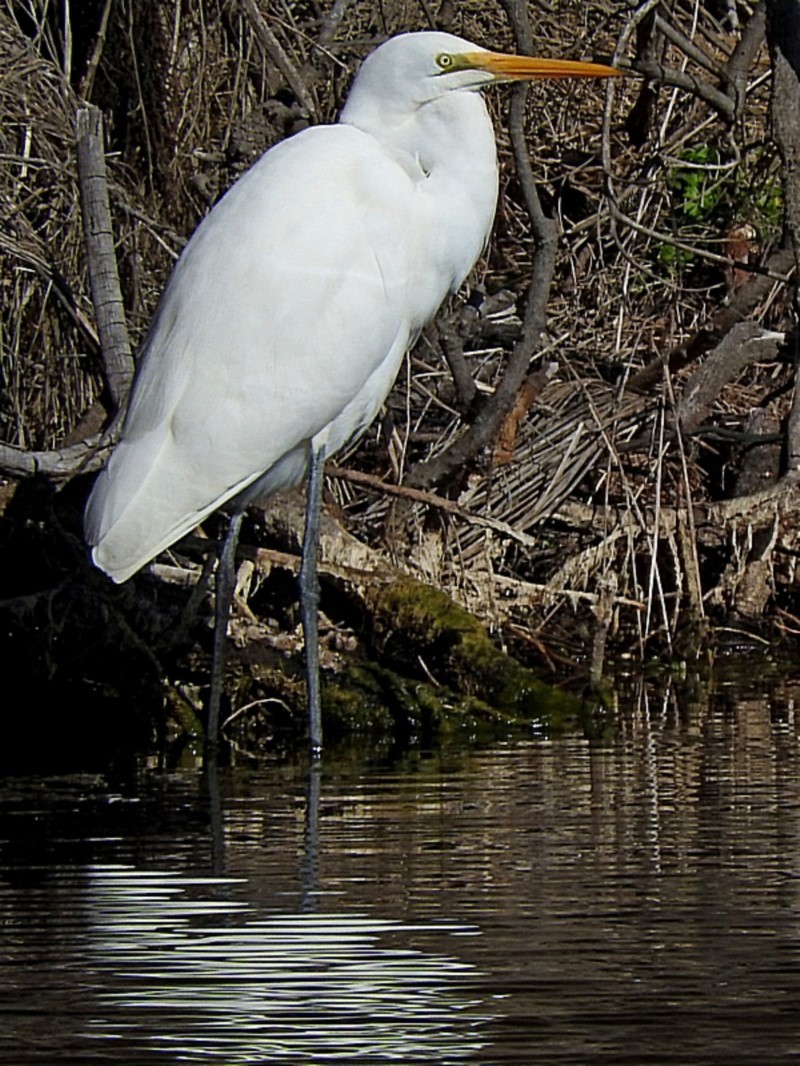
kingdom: Animalia
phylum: Chordata
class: Aves
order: Pelecaniformes
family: Ardeidae
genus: Ardea
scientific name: Ardea alba
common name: Great egret
